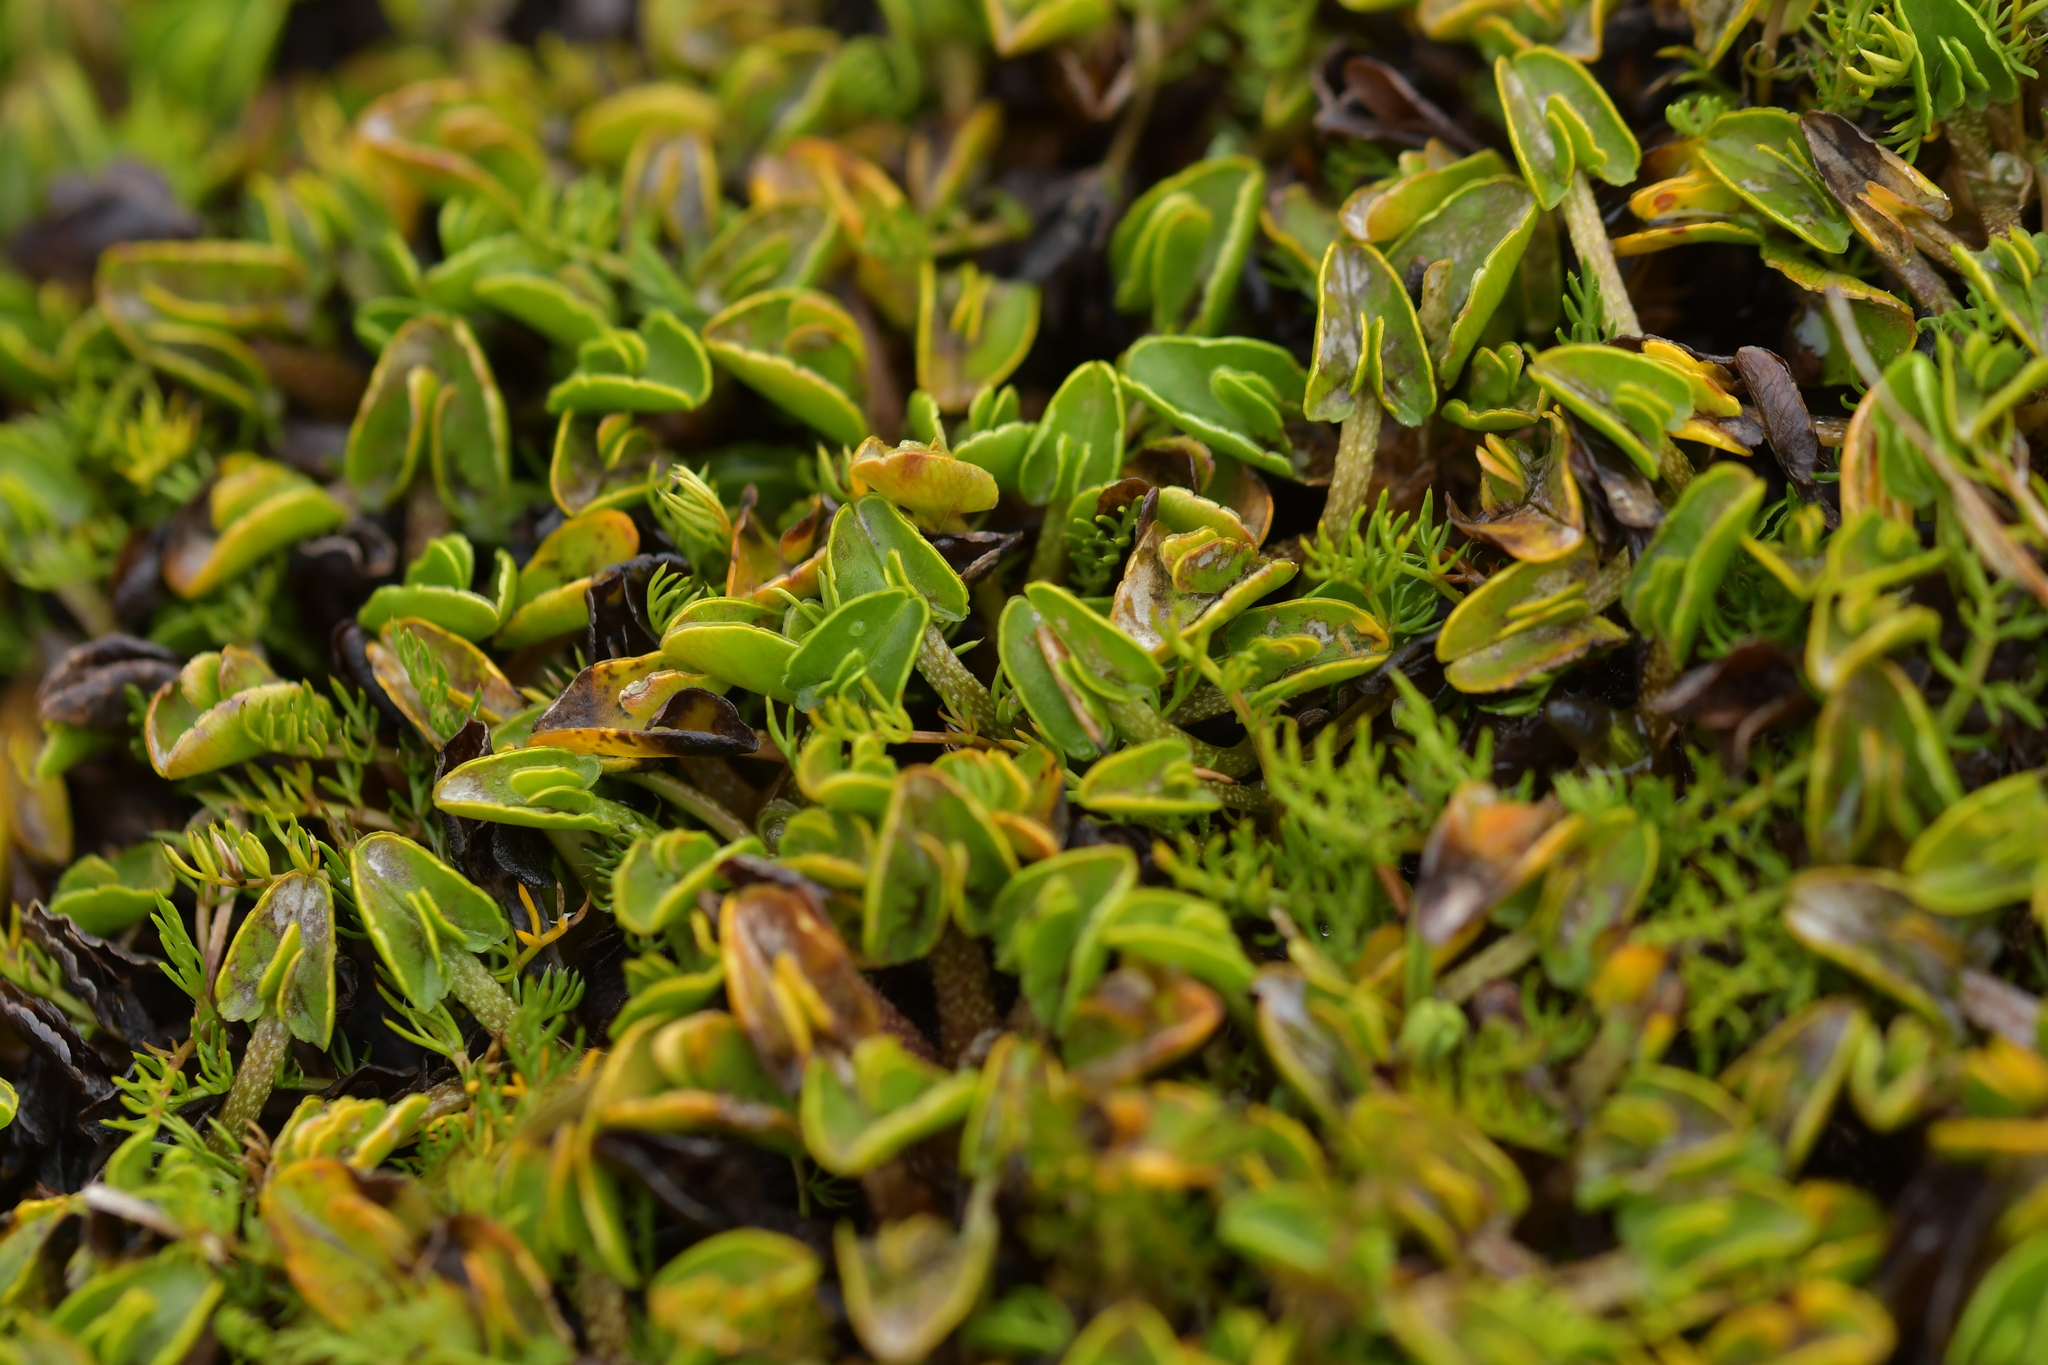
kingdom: Plantae
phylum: Tracheophyta
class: Magnoliopsida
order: Ranunculales
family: Ranunculaceae
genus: Caltha
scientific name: Caltha obtusa
